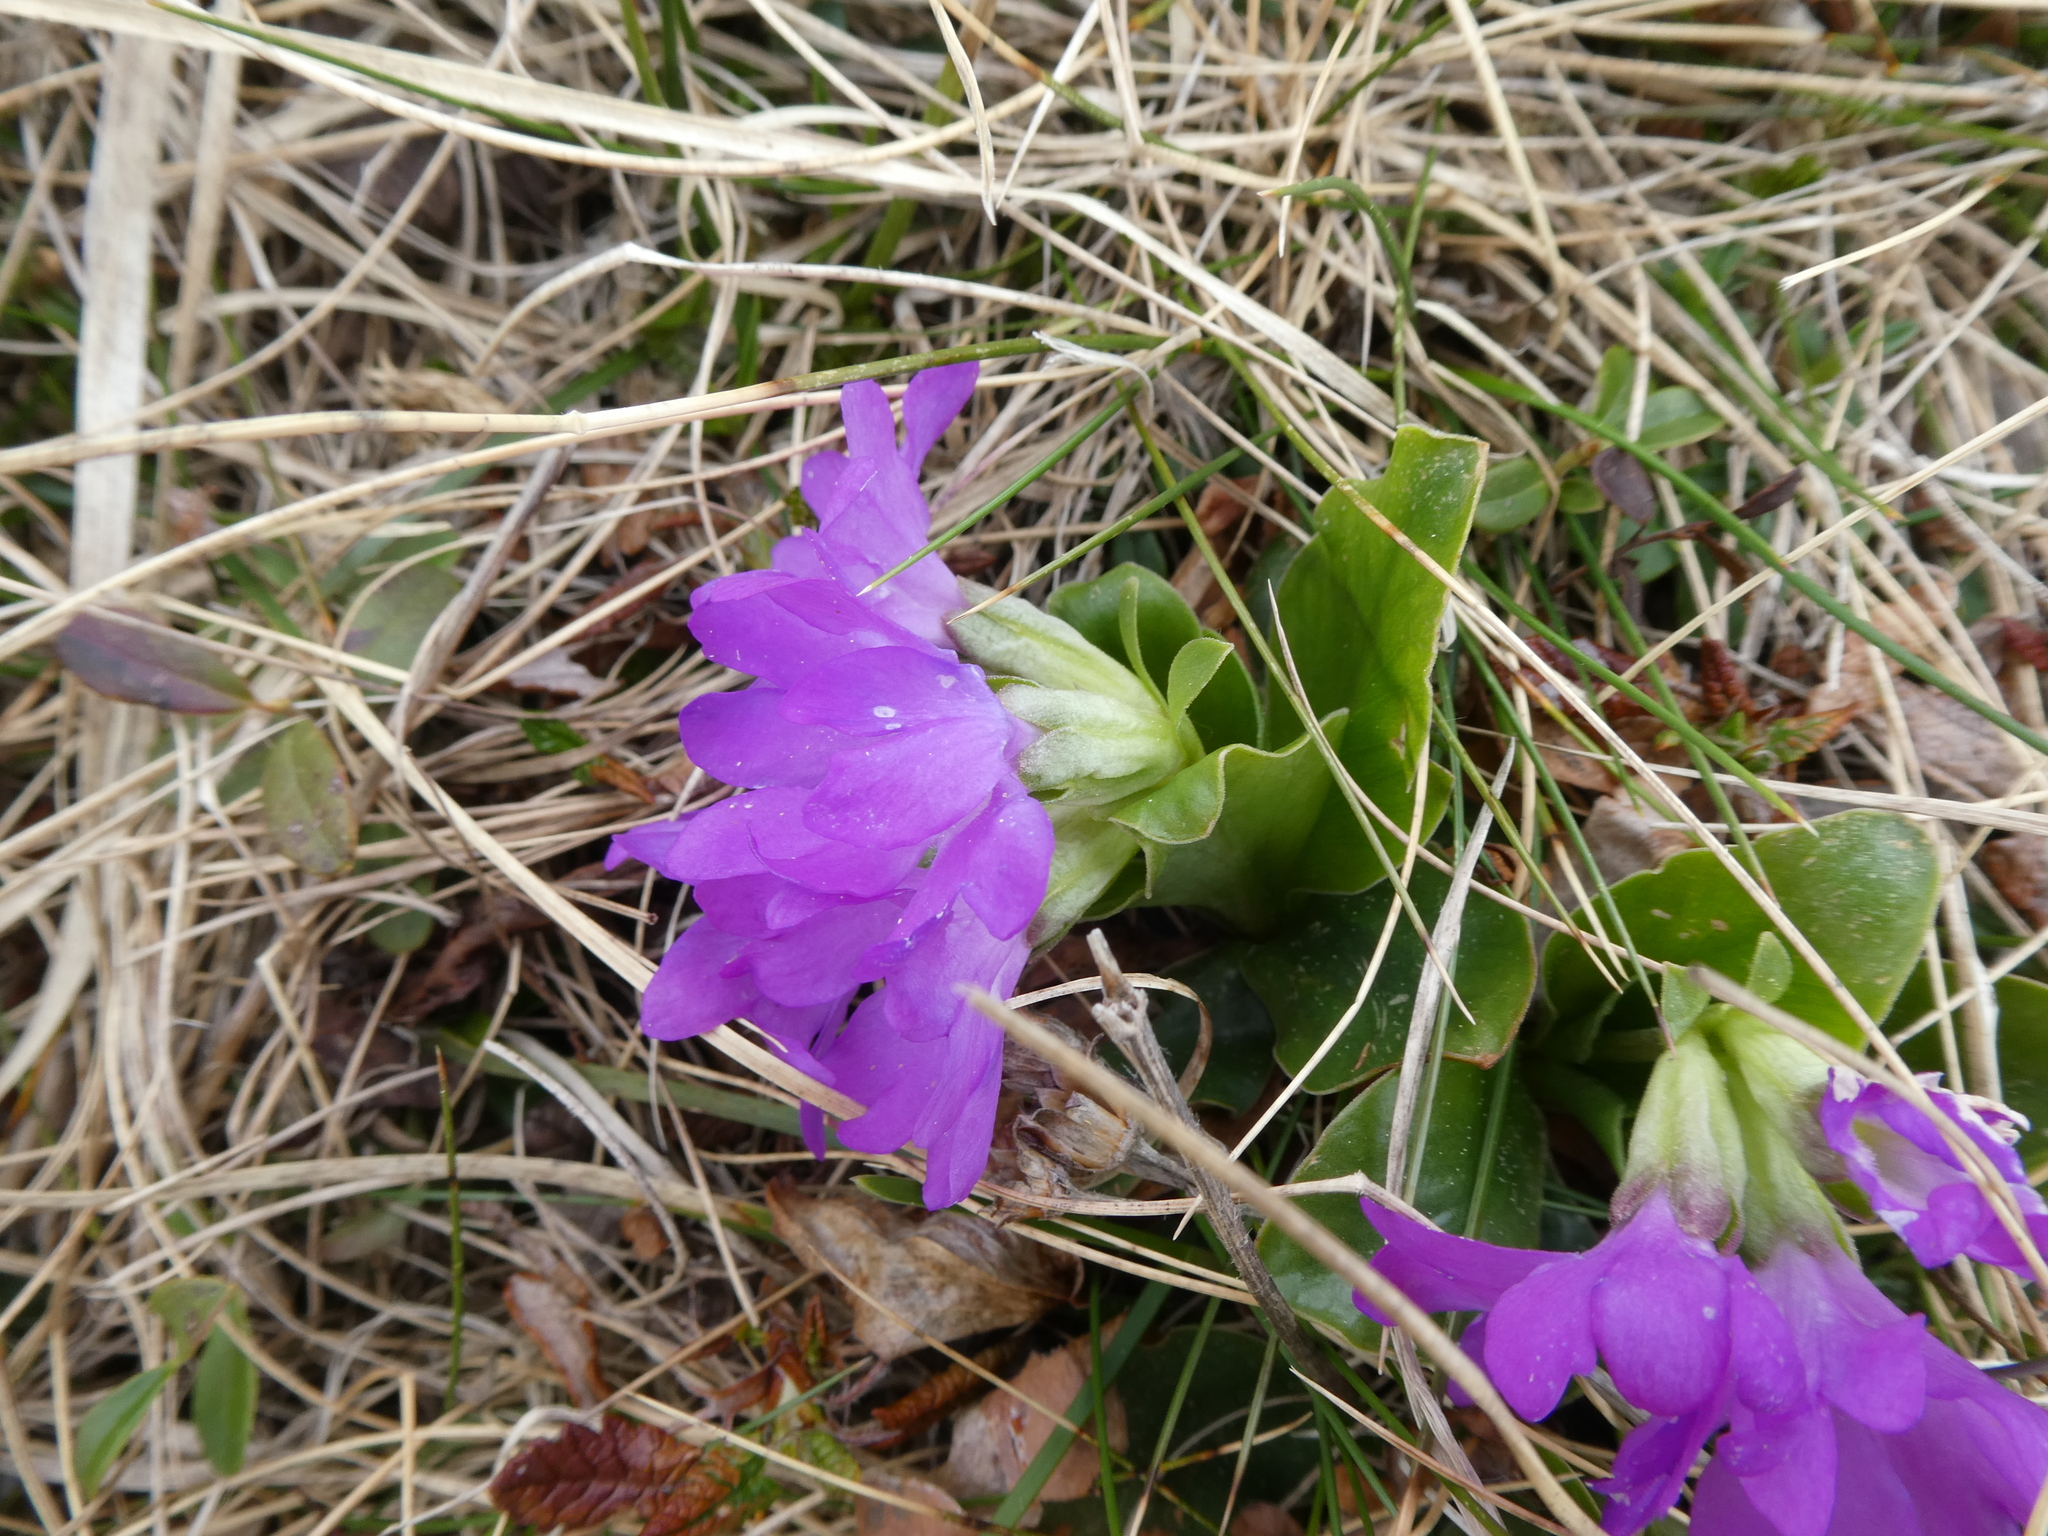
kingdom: Plantae
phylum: Tracheophyta
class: Magnoliopsida
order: Ericales
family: Primulaceae
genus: Primula
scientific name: Primula clusiana
